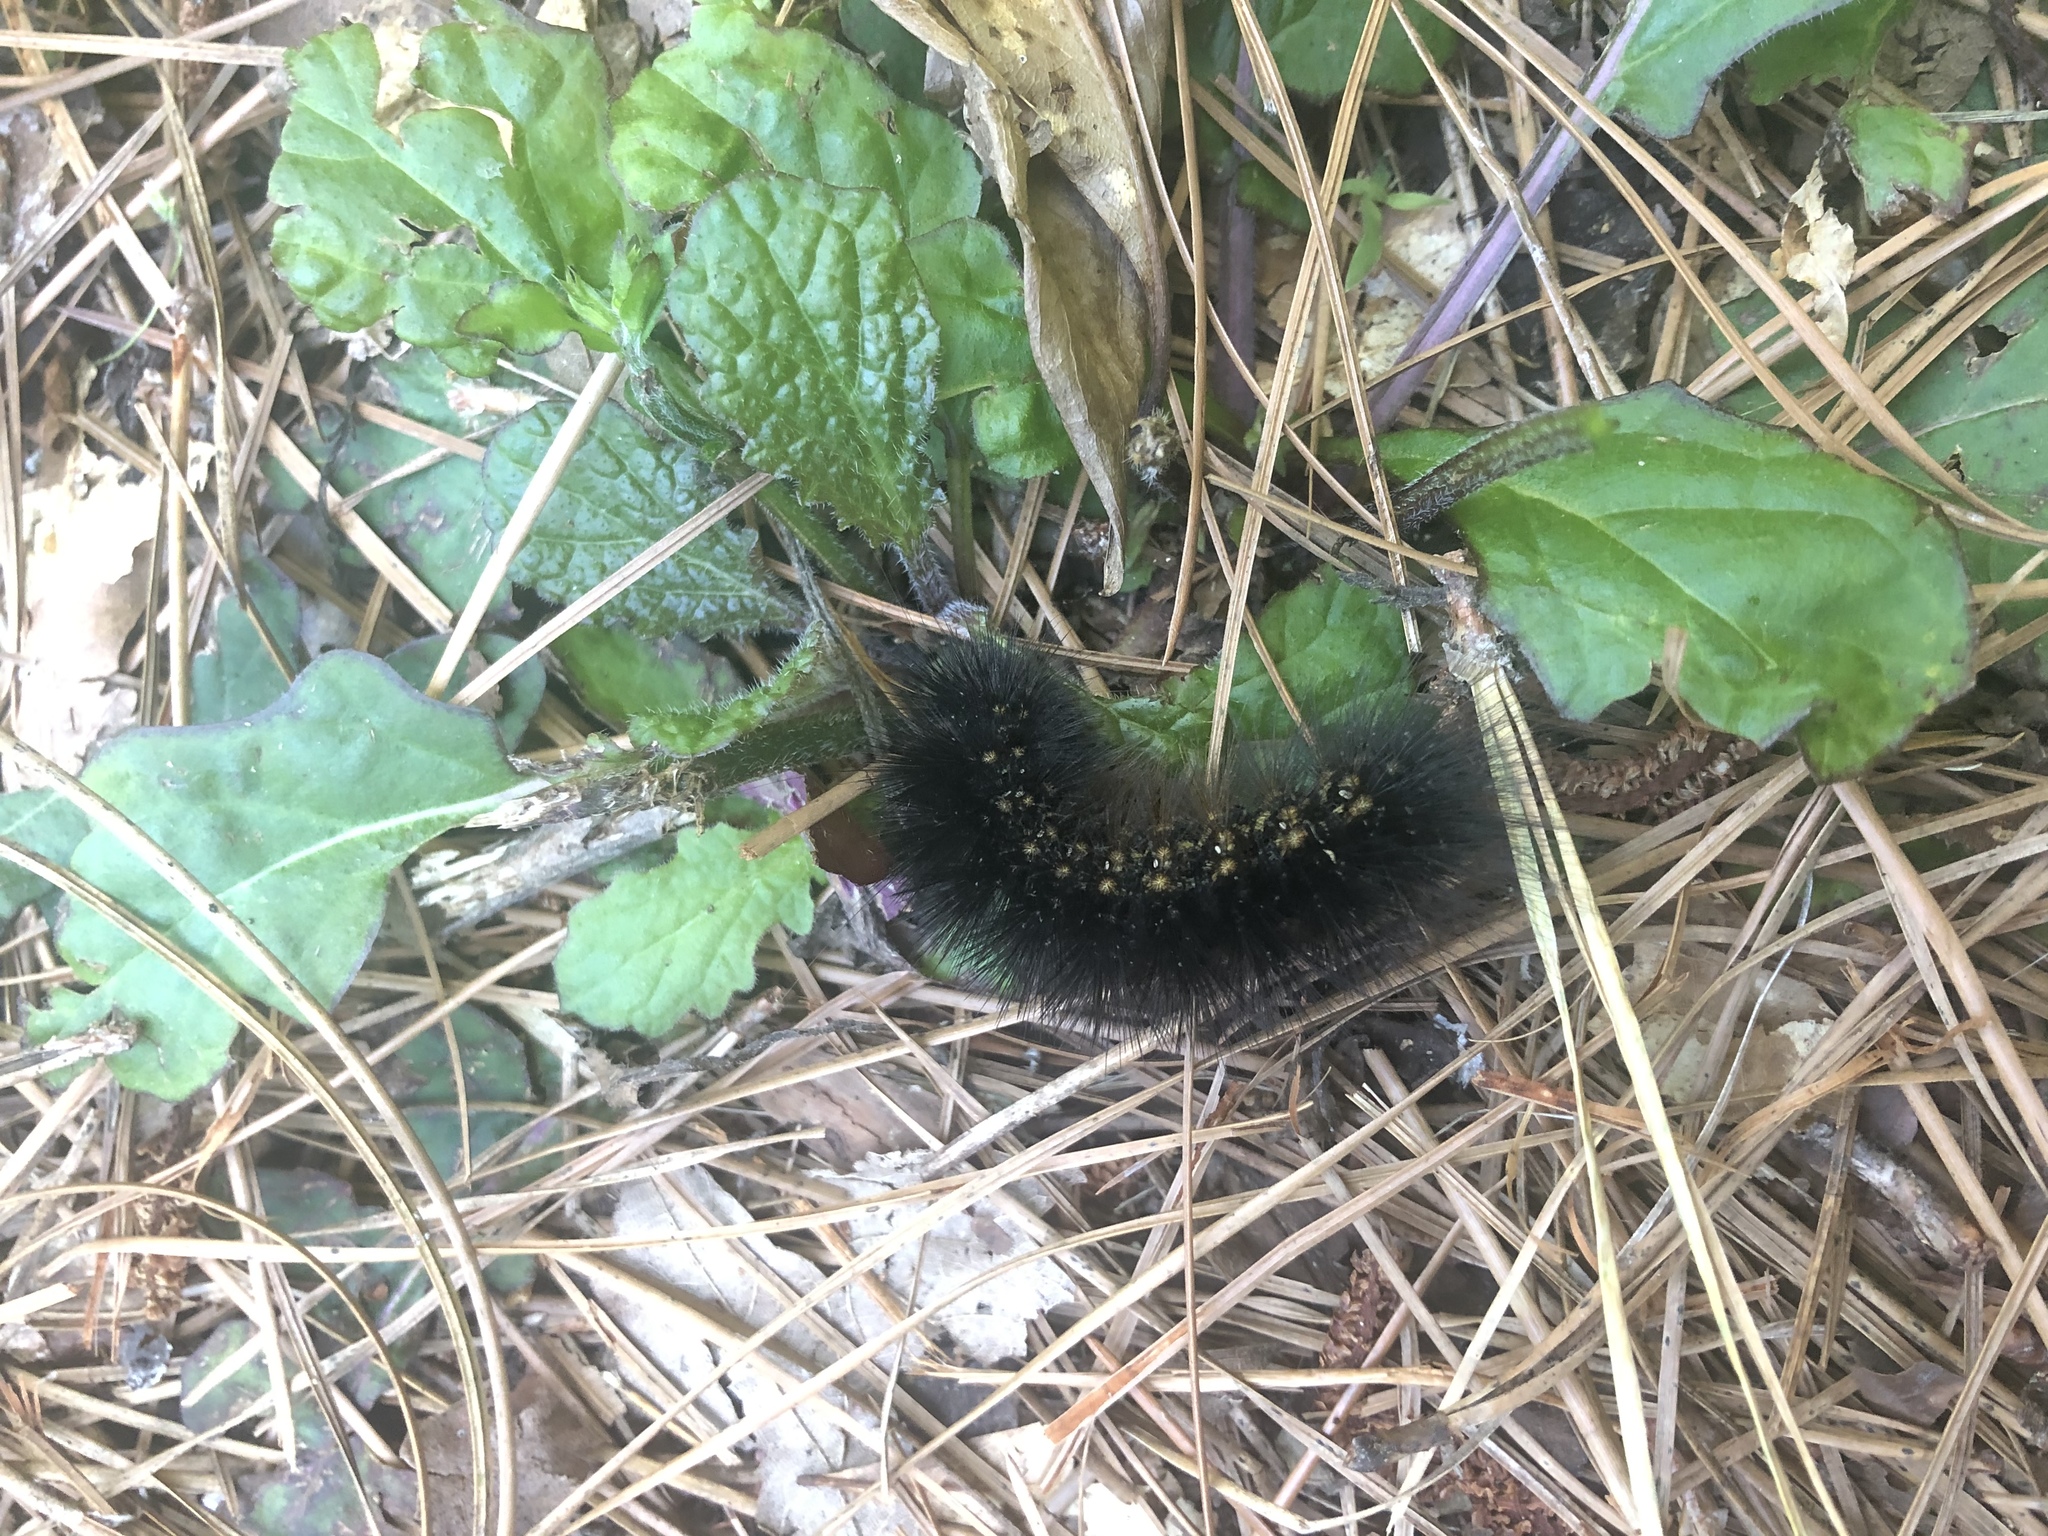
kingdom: Animalia
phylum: Arthropoda
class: Insecta
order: Lepidoptera
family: Erebidae
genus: Estigmene
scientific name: Estigmene acrea
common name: Salt marsh moth
